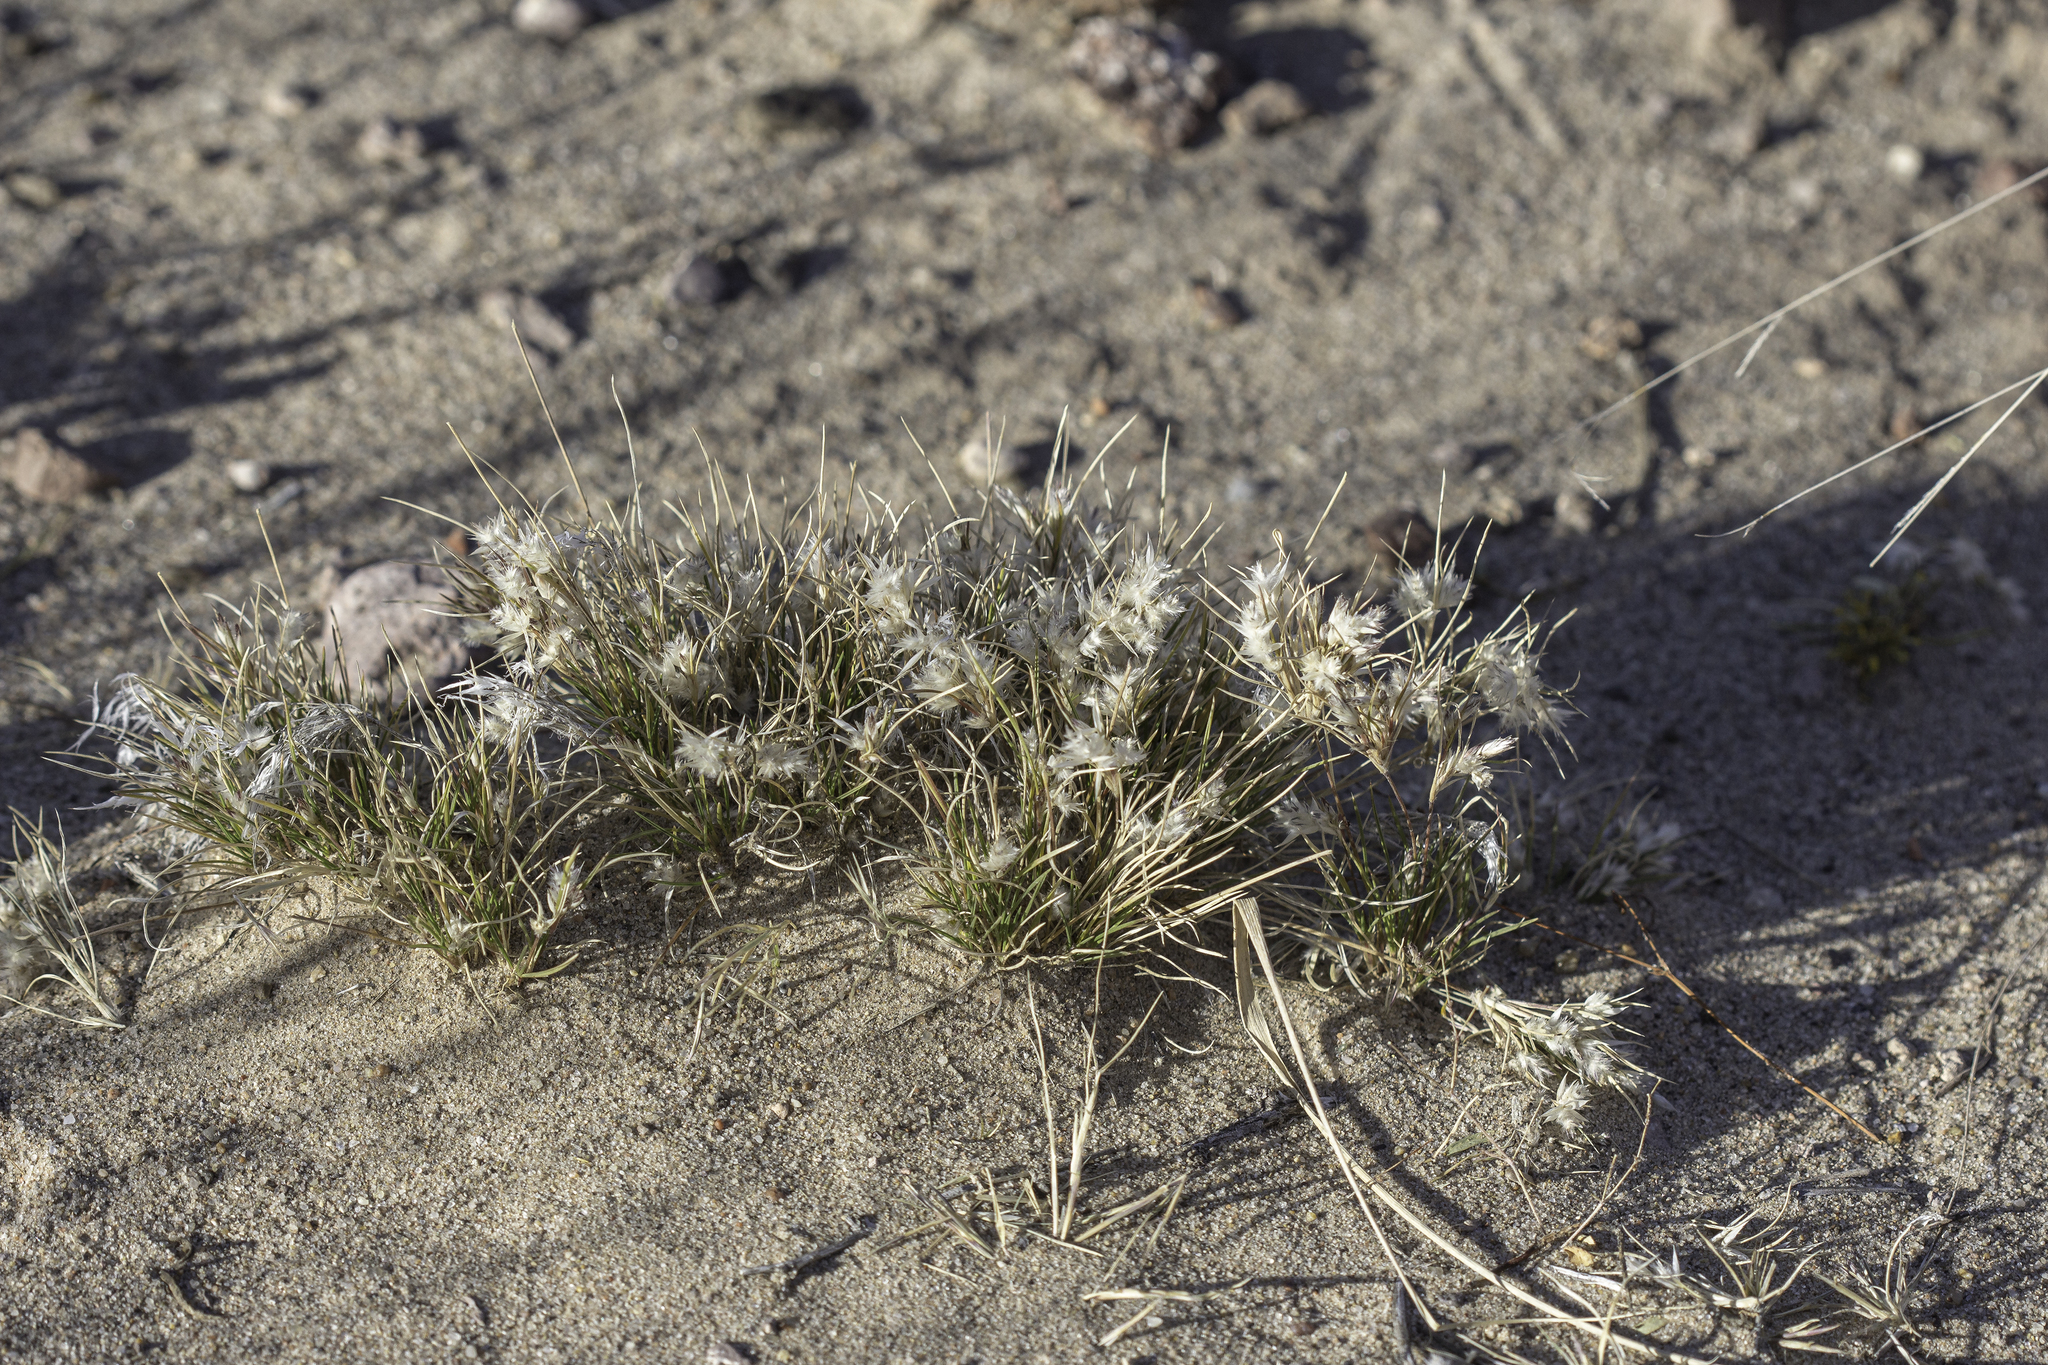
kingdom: Plantae
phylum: Tracheophyta
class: Liliopsida
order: Poales
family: Poaceae
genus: Dasyochloa
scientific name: Dasyochloa pulchella
